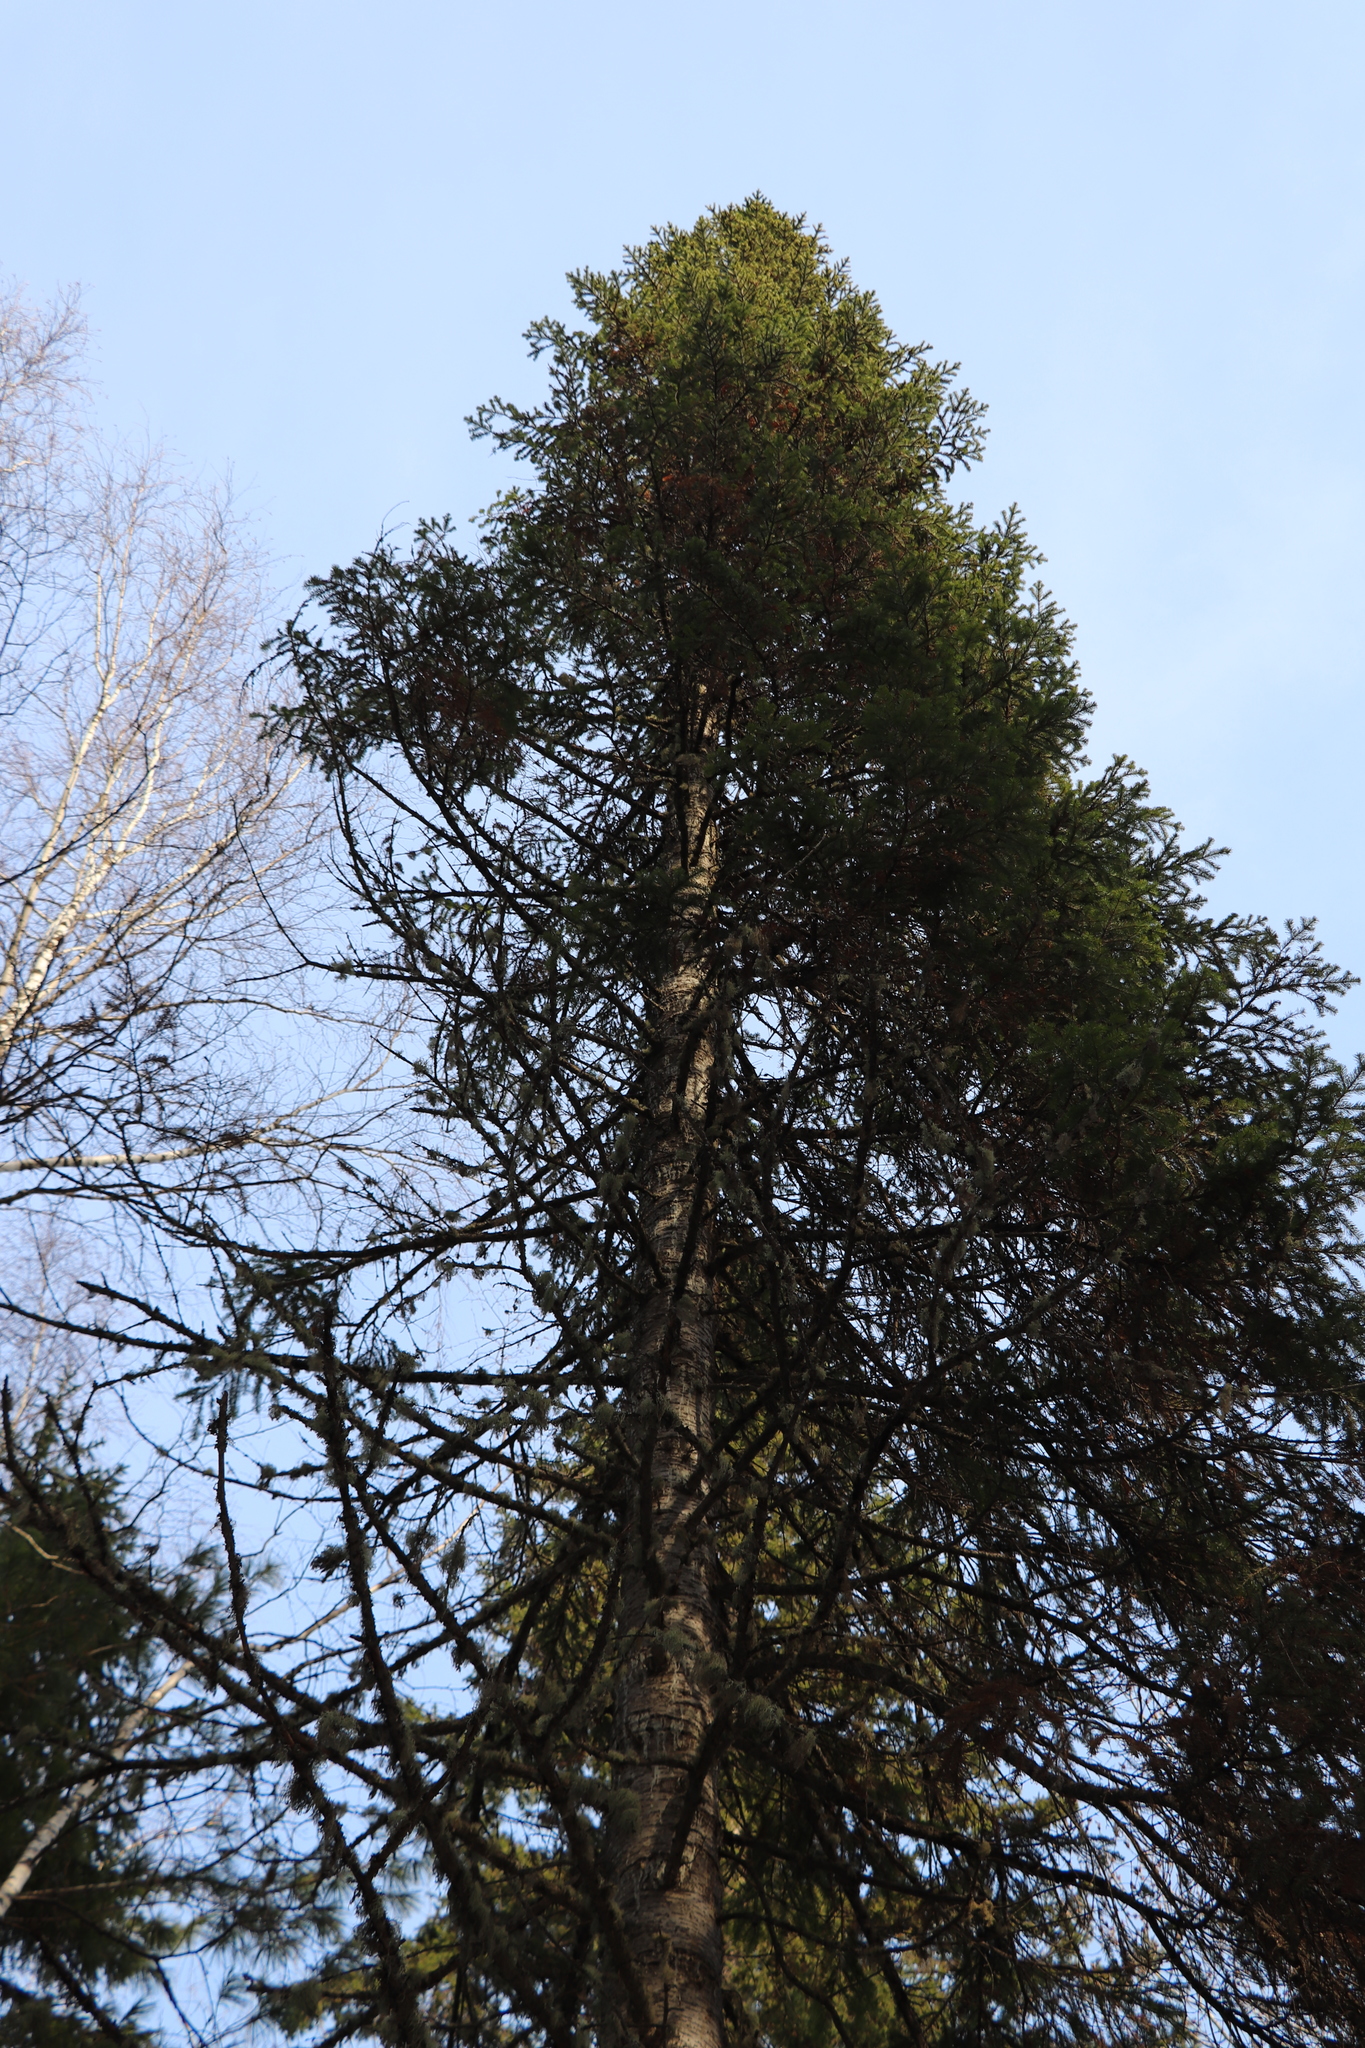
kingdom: Plantae
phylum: Tracheophyta
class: Pinopsida
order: Pinales
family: Pinaceae
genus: Abies
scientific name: Abies sibirica
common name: Siberian fir
